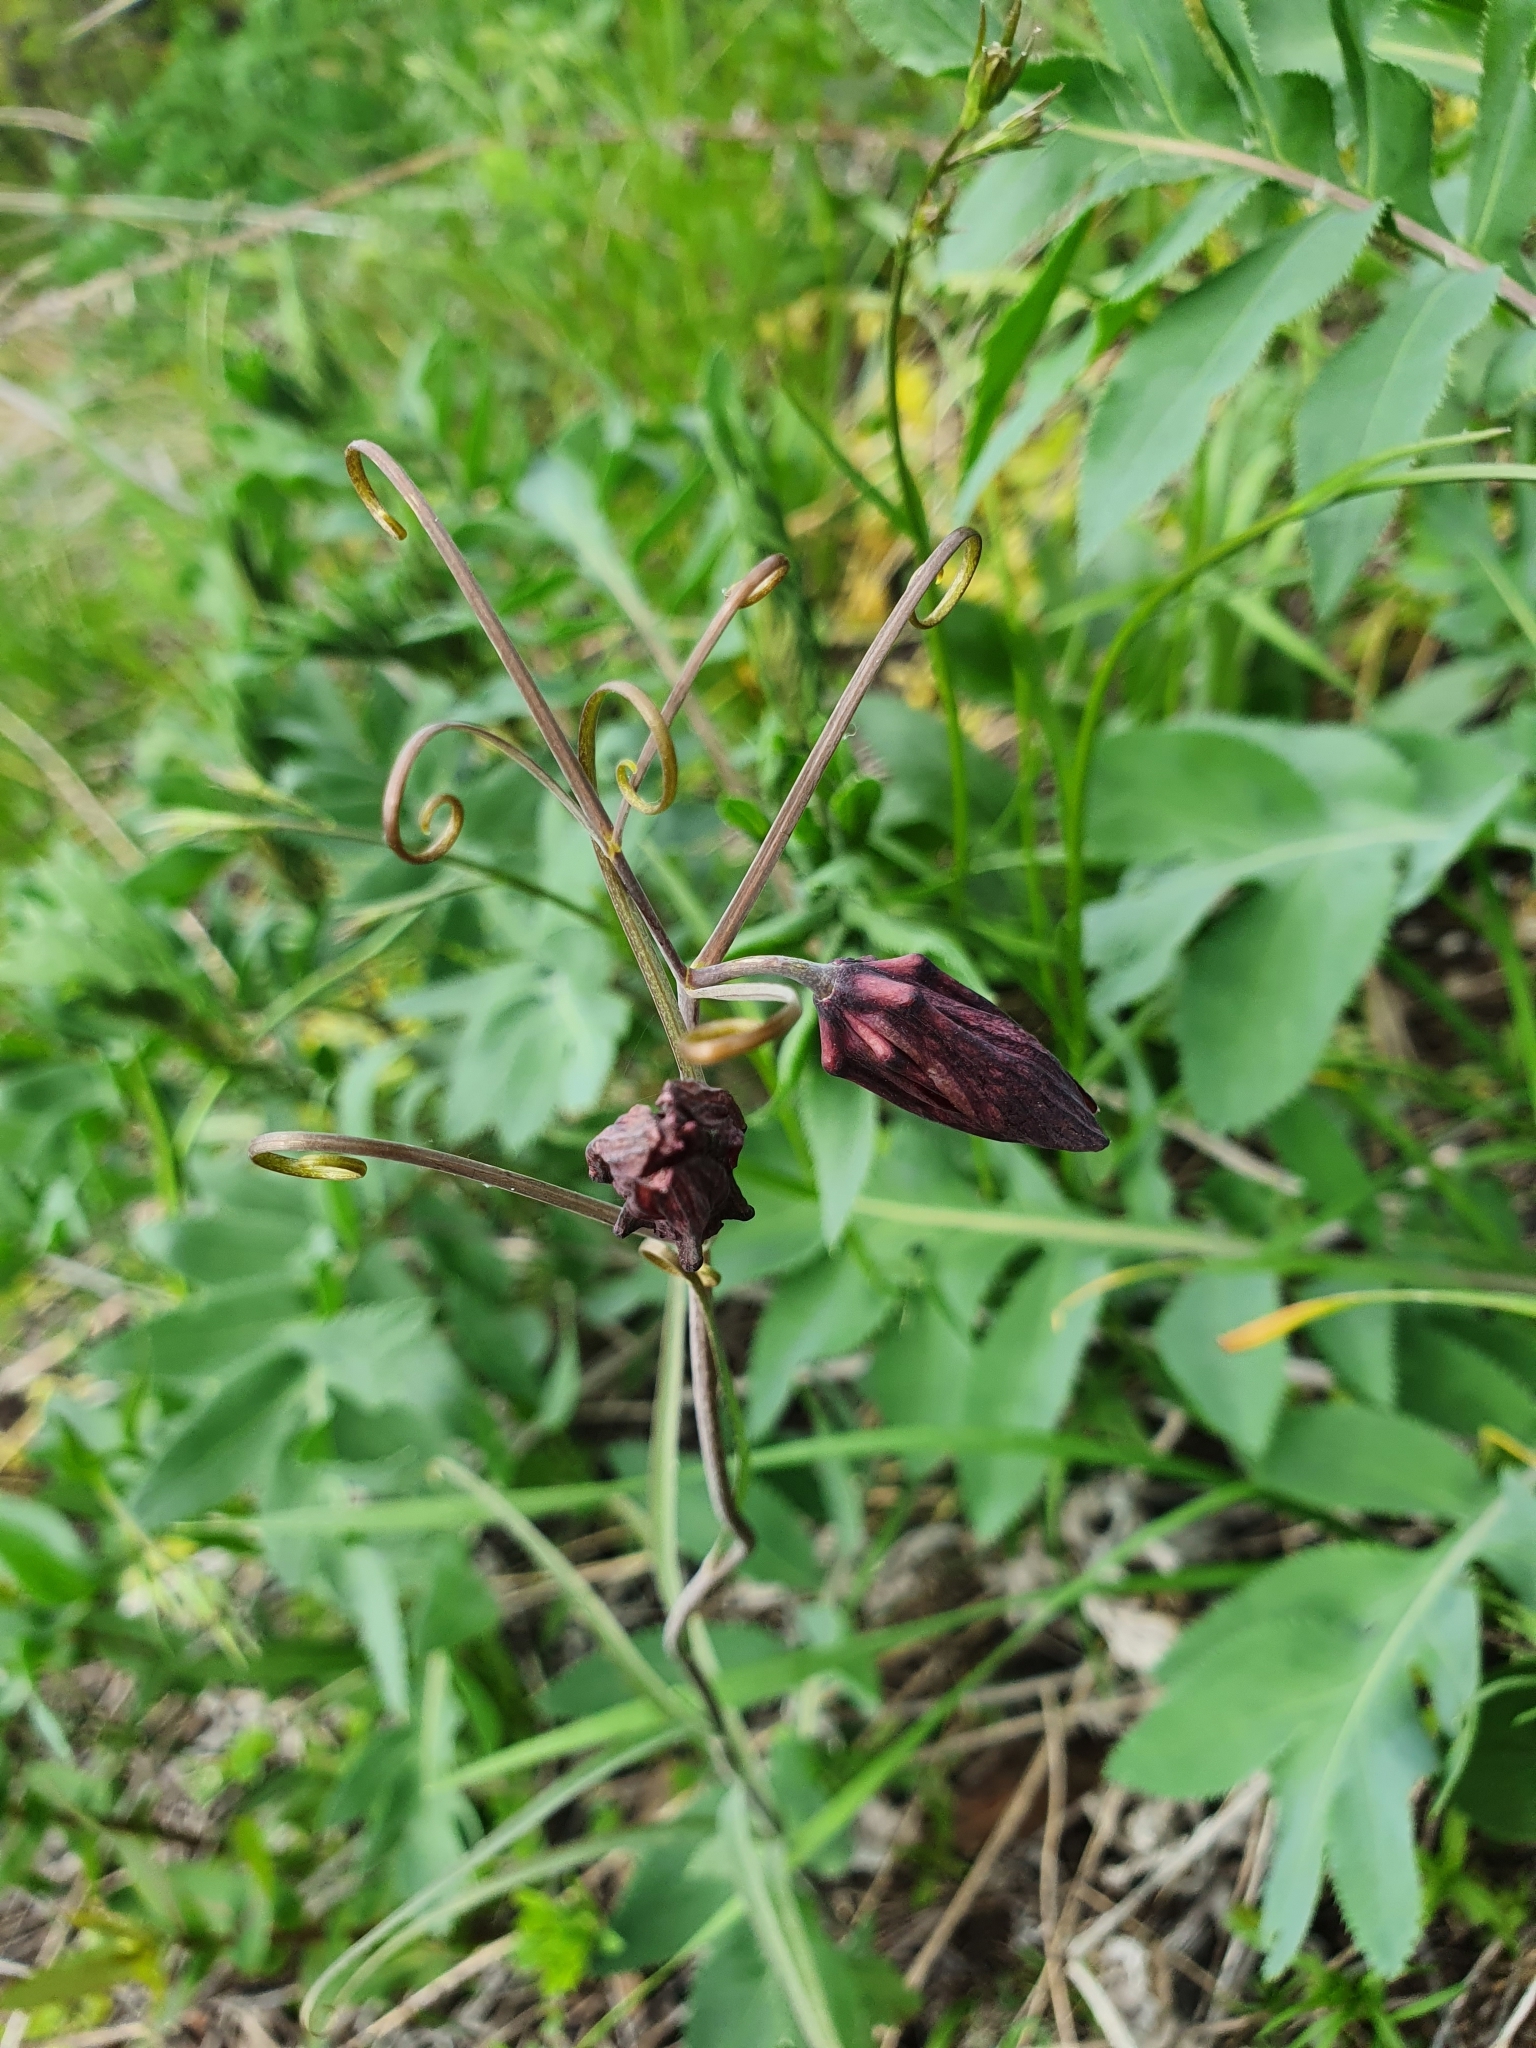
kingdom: Plantae
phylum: Tracheophyta
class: Liliopsida
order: Liliales
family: Liliaceae
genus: Fritillaria
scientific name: Fritillaria ruthenica
